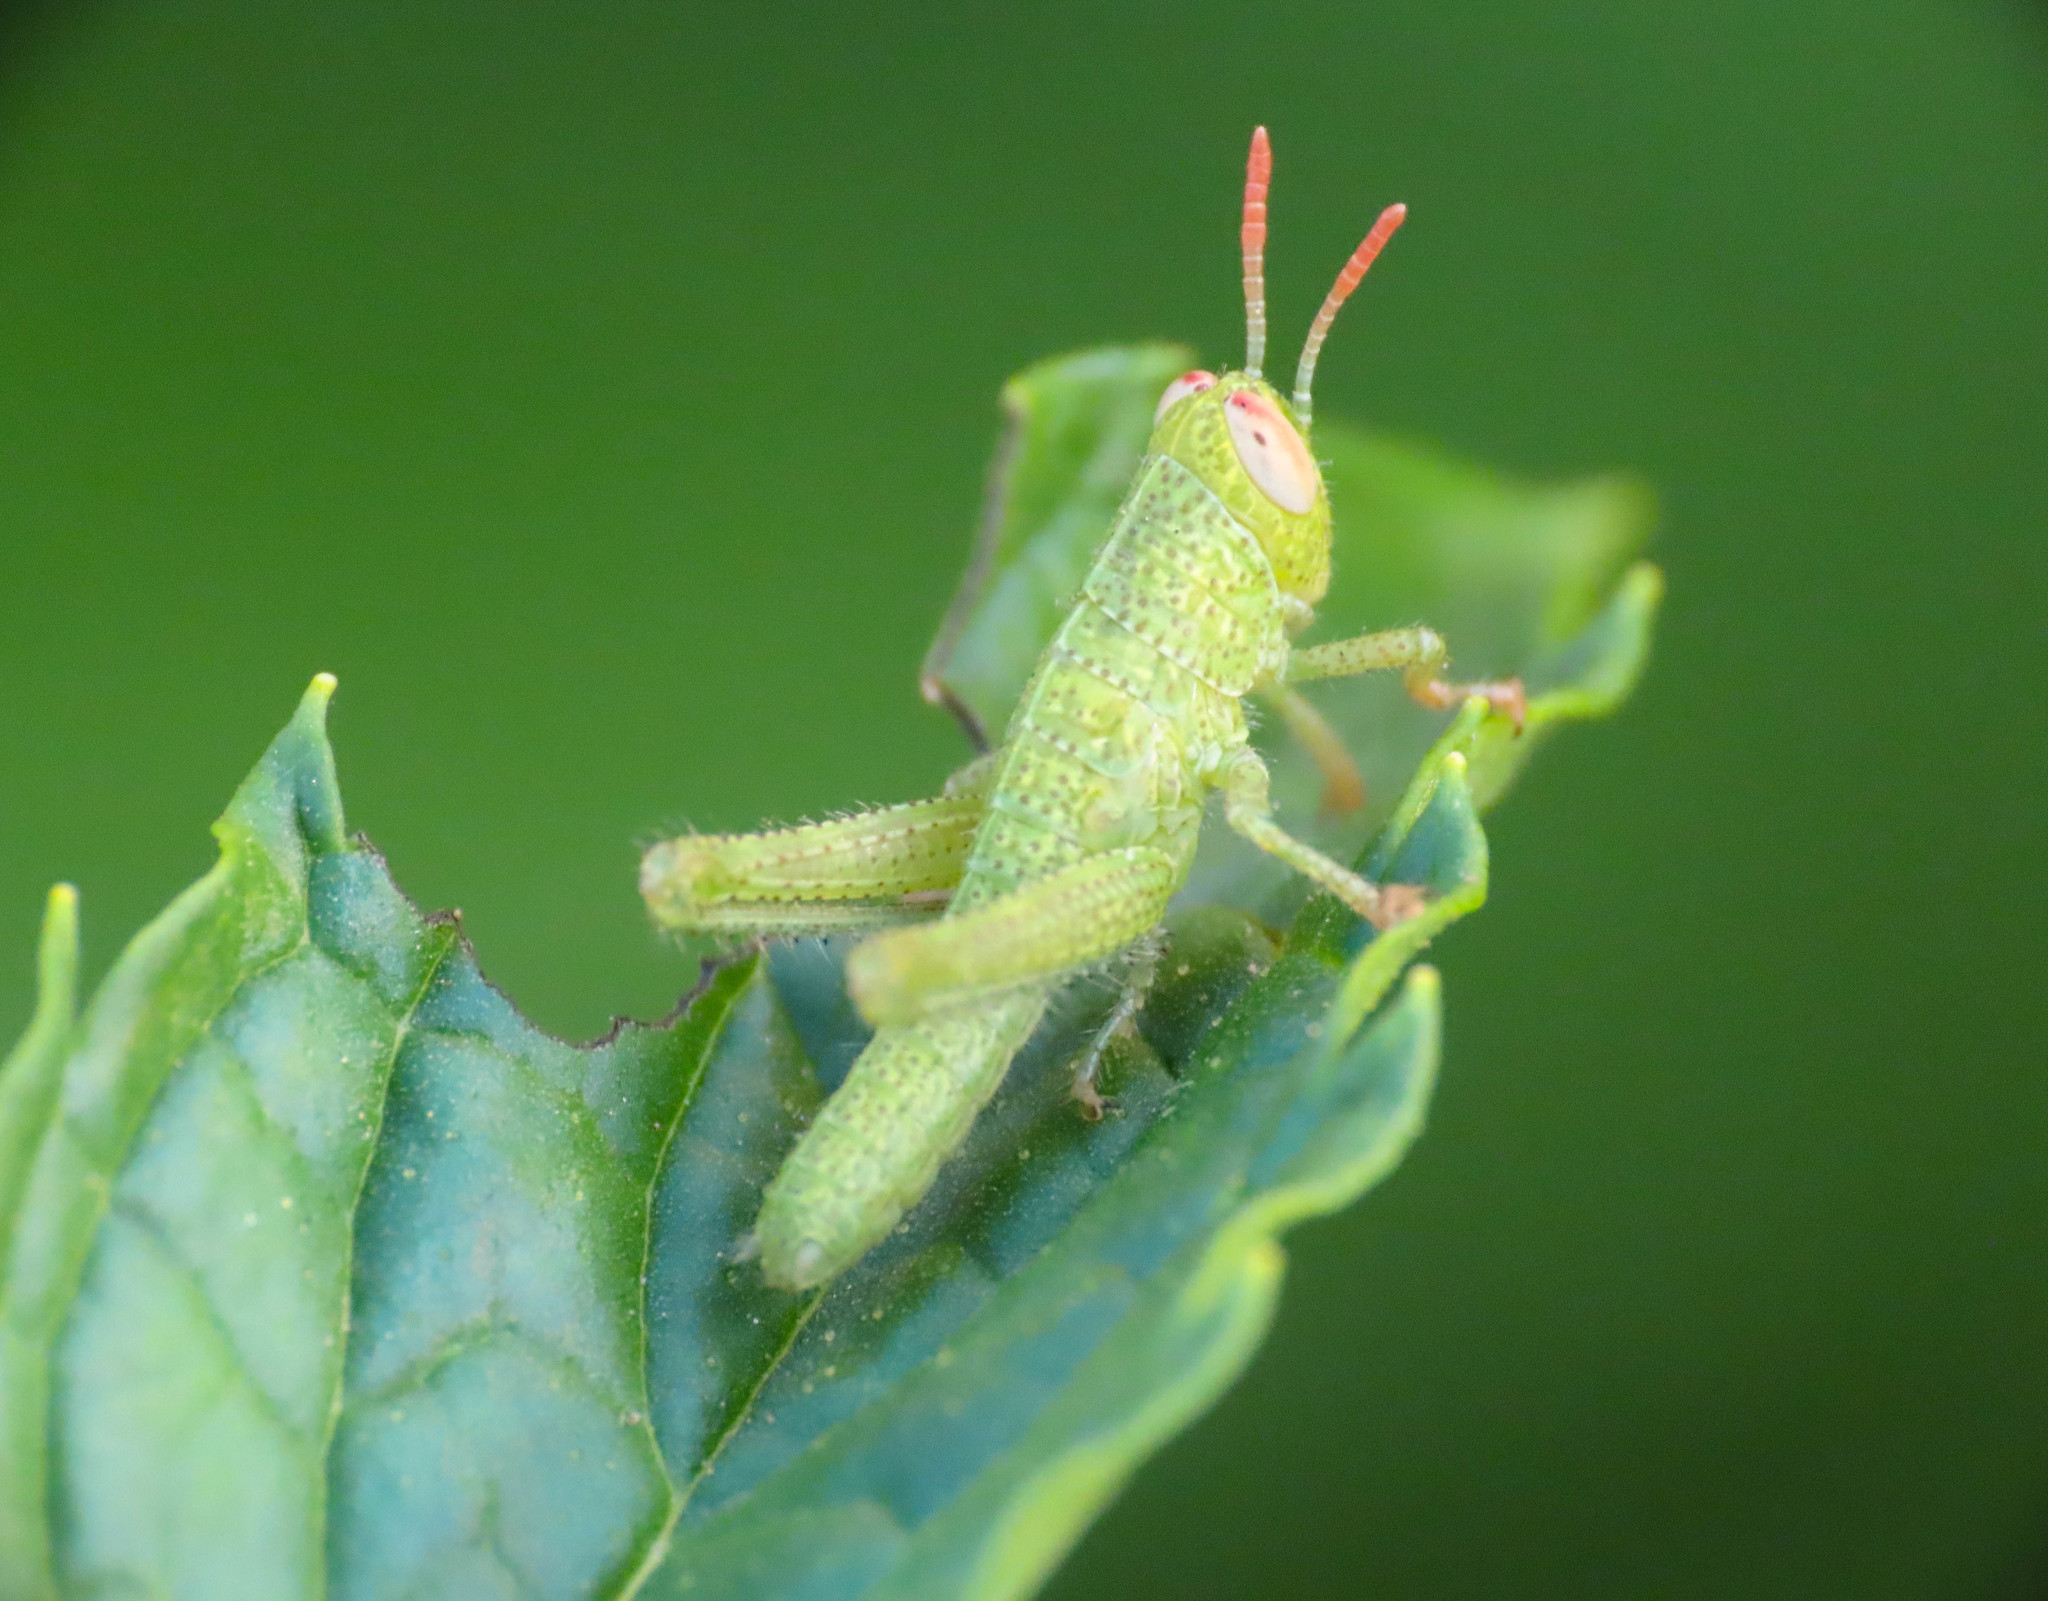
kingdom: Animalia
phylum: Arthropoda
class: Insecta
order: Orthoptera
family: Acrididae
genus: Anacridium
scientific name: Anacridium aegyptium
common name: Egyptian grasshopper
